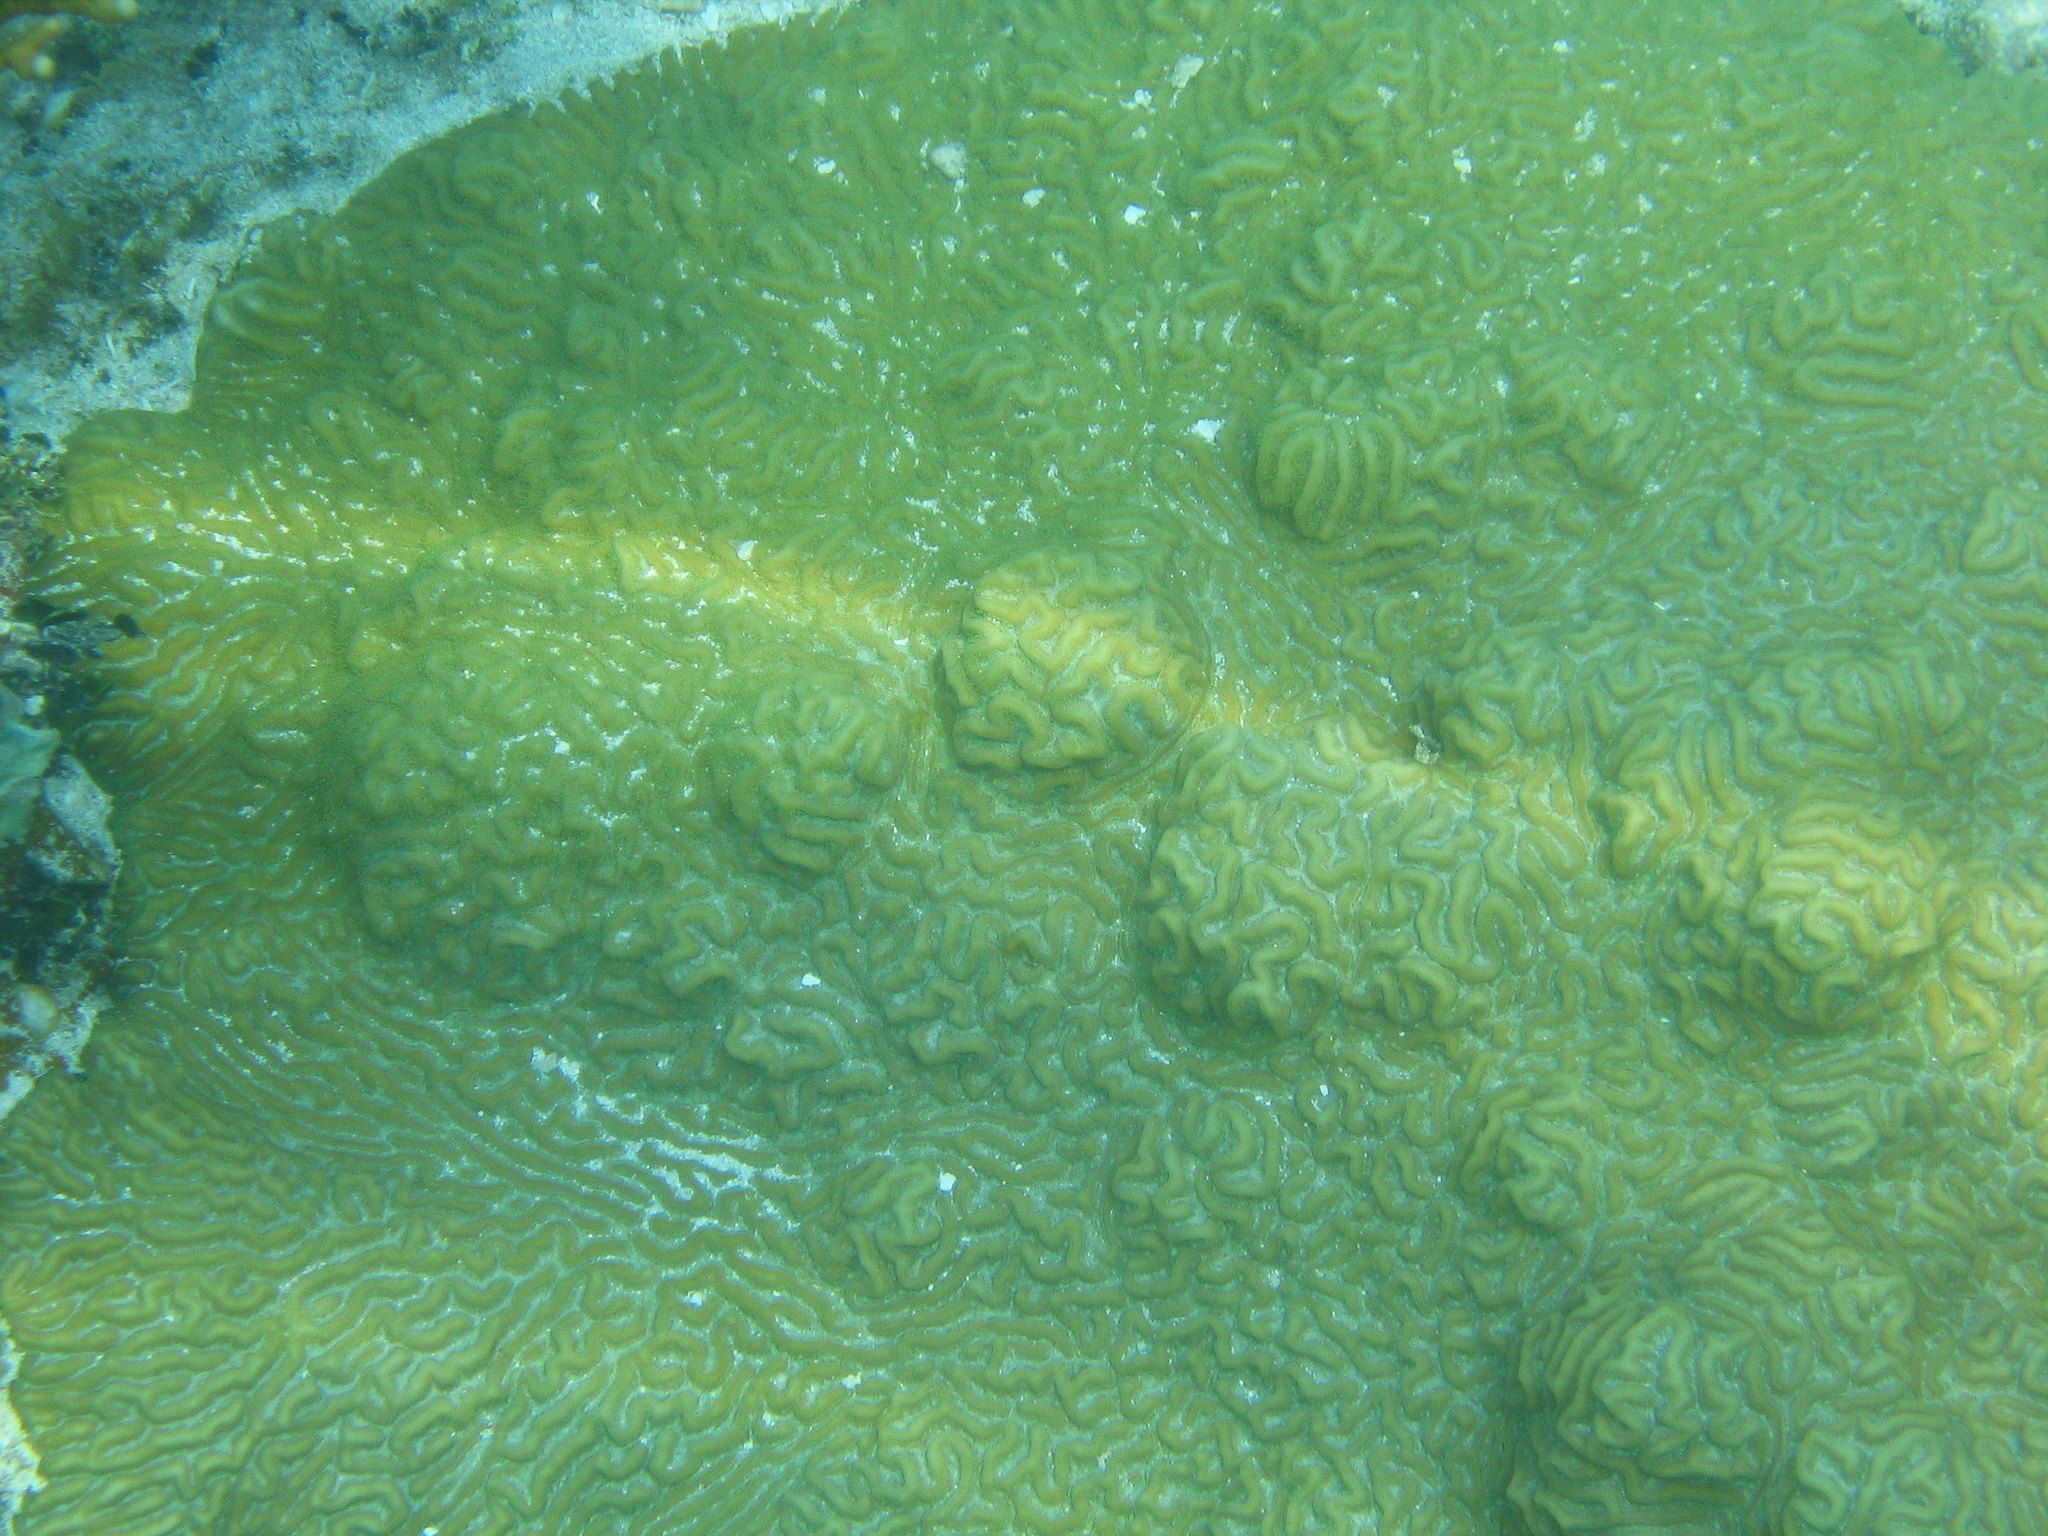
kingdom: Animalia
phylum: Cnidaria
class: Anthozoa
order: Scleractinia
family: Faviidae
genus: Pseudodiploria
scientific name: Pseudodiploria clivosa
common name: Knobby brain coral
